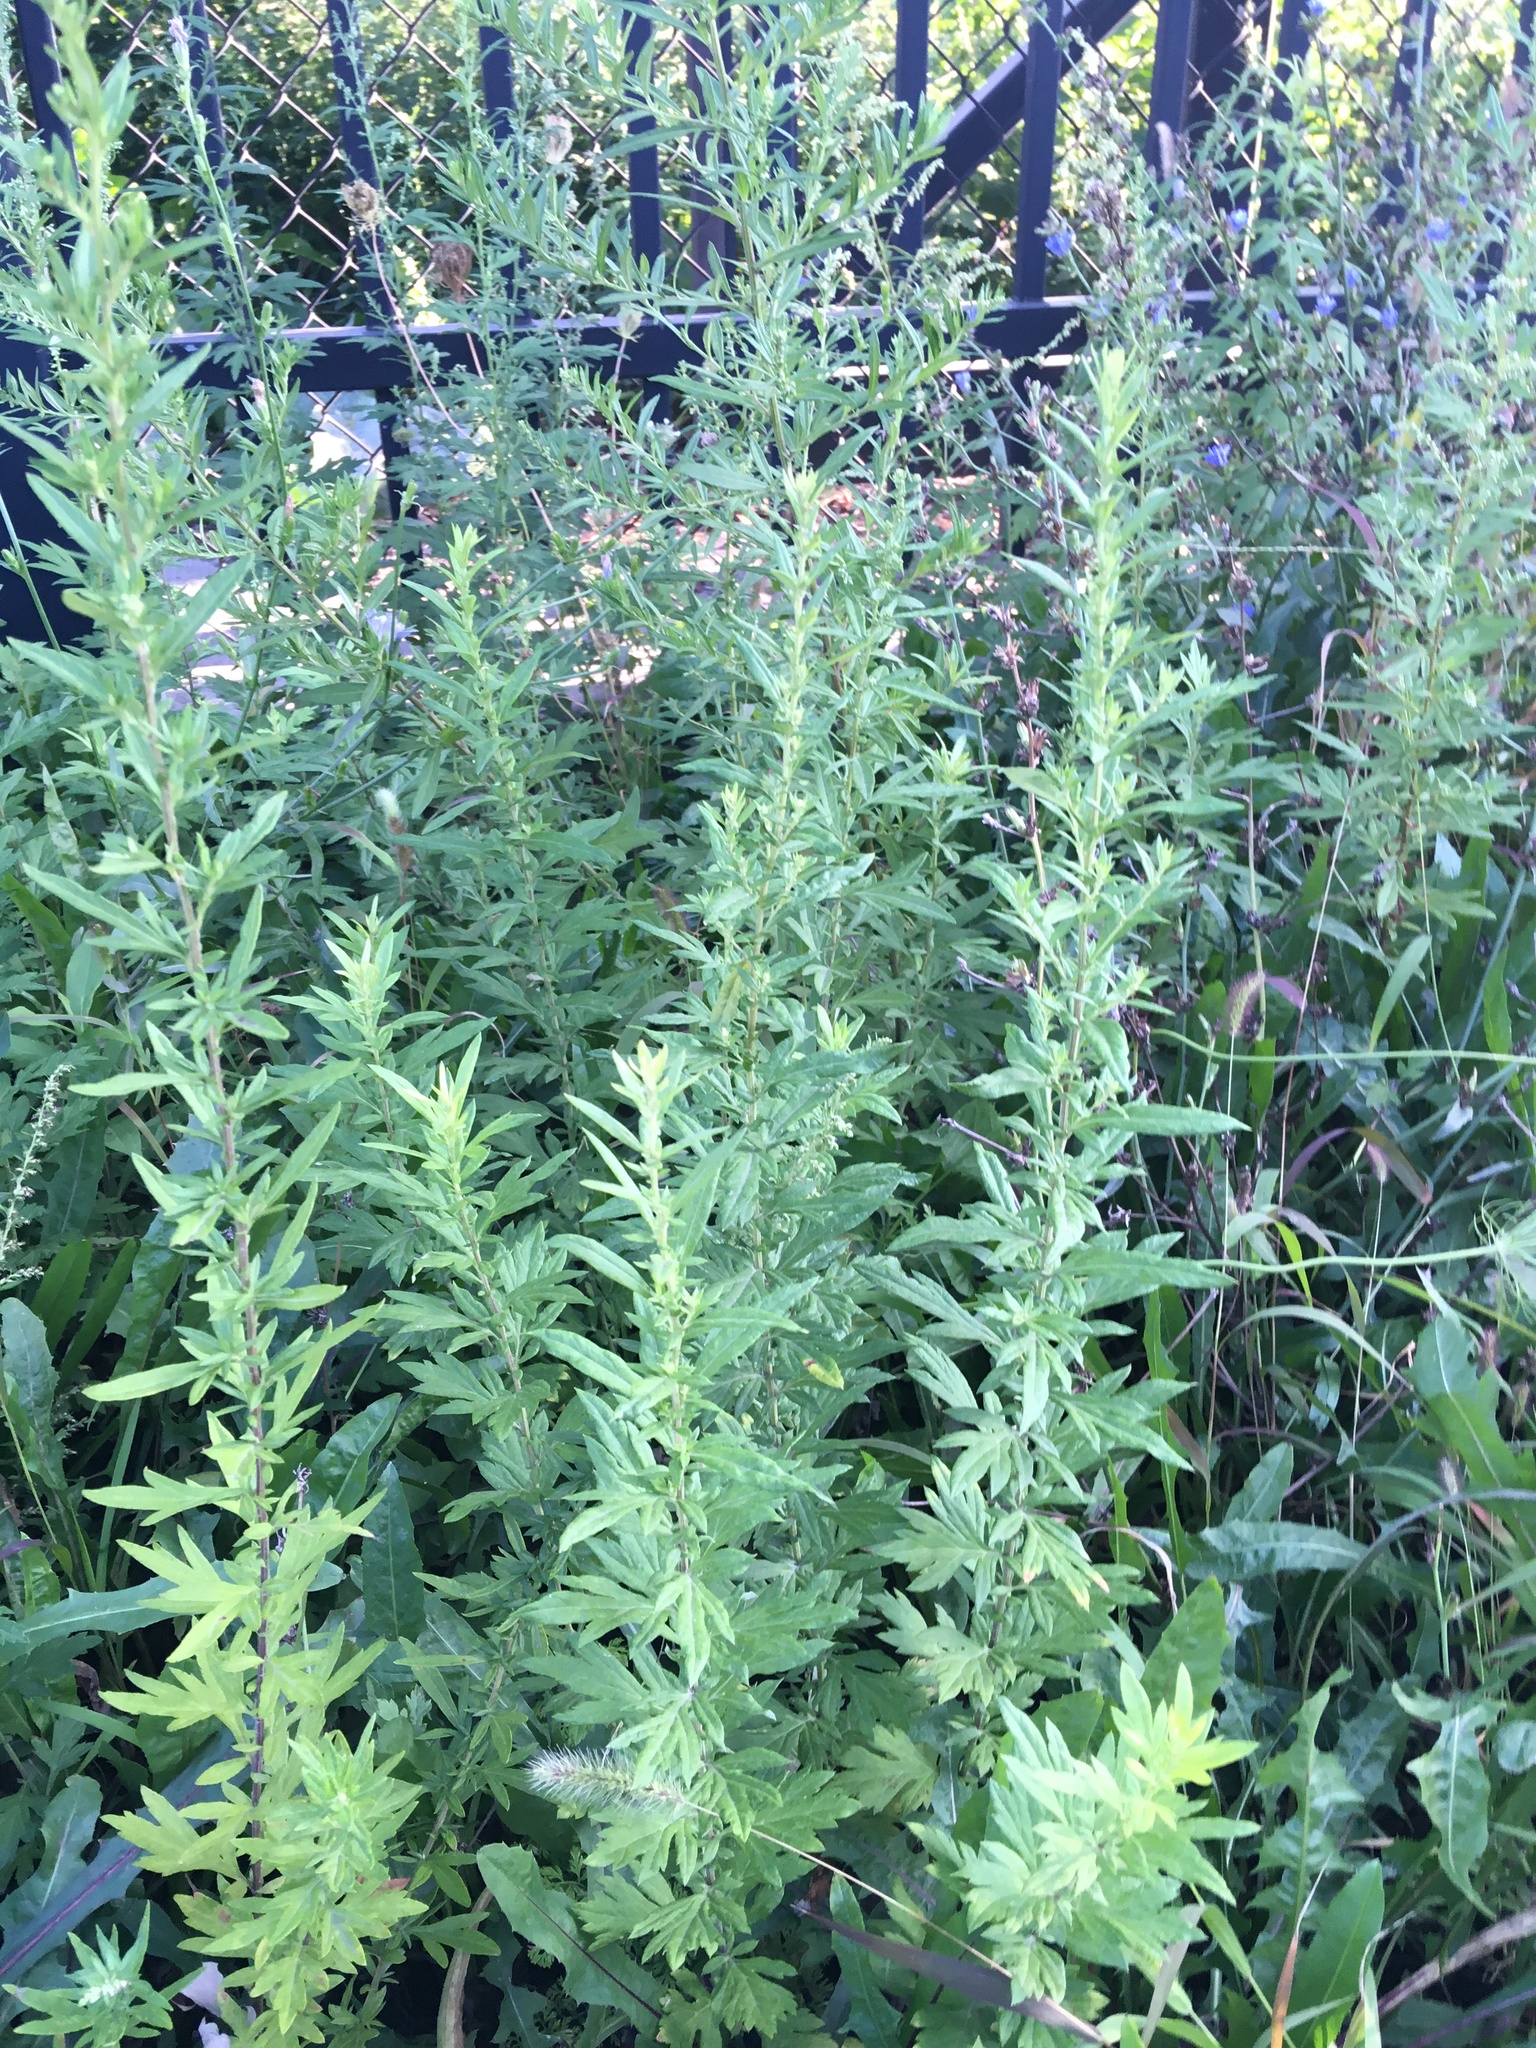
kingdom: Plantae
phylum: Tracheophyta
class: Magnoliopsida
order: Asterales
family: Asteraceae
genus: Artemisia
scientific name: Artemisia vulgaris
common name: Mugwort
